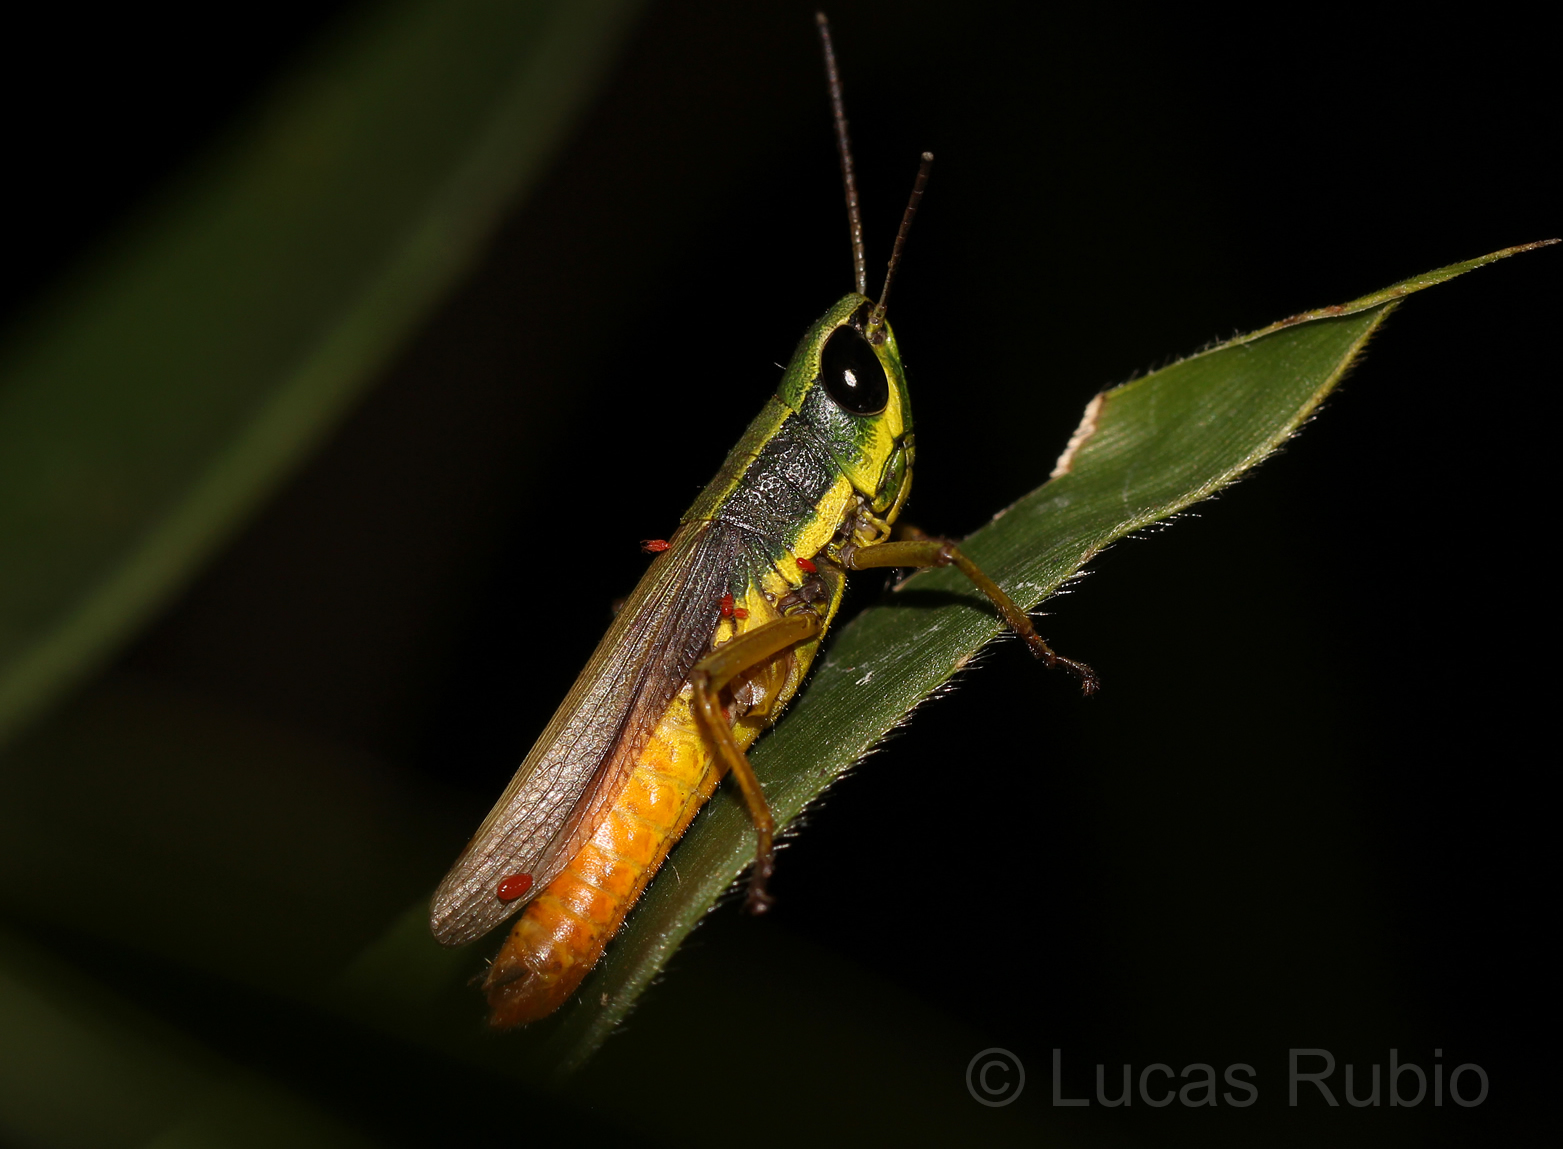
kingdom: Animalia
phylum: Arthropoda
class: Insecta
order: Orthoptera
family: Acrididae
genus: Amblytropidia
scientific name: Amblytropidia sola
